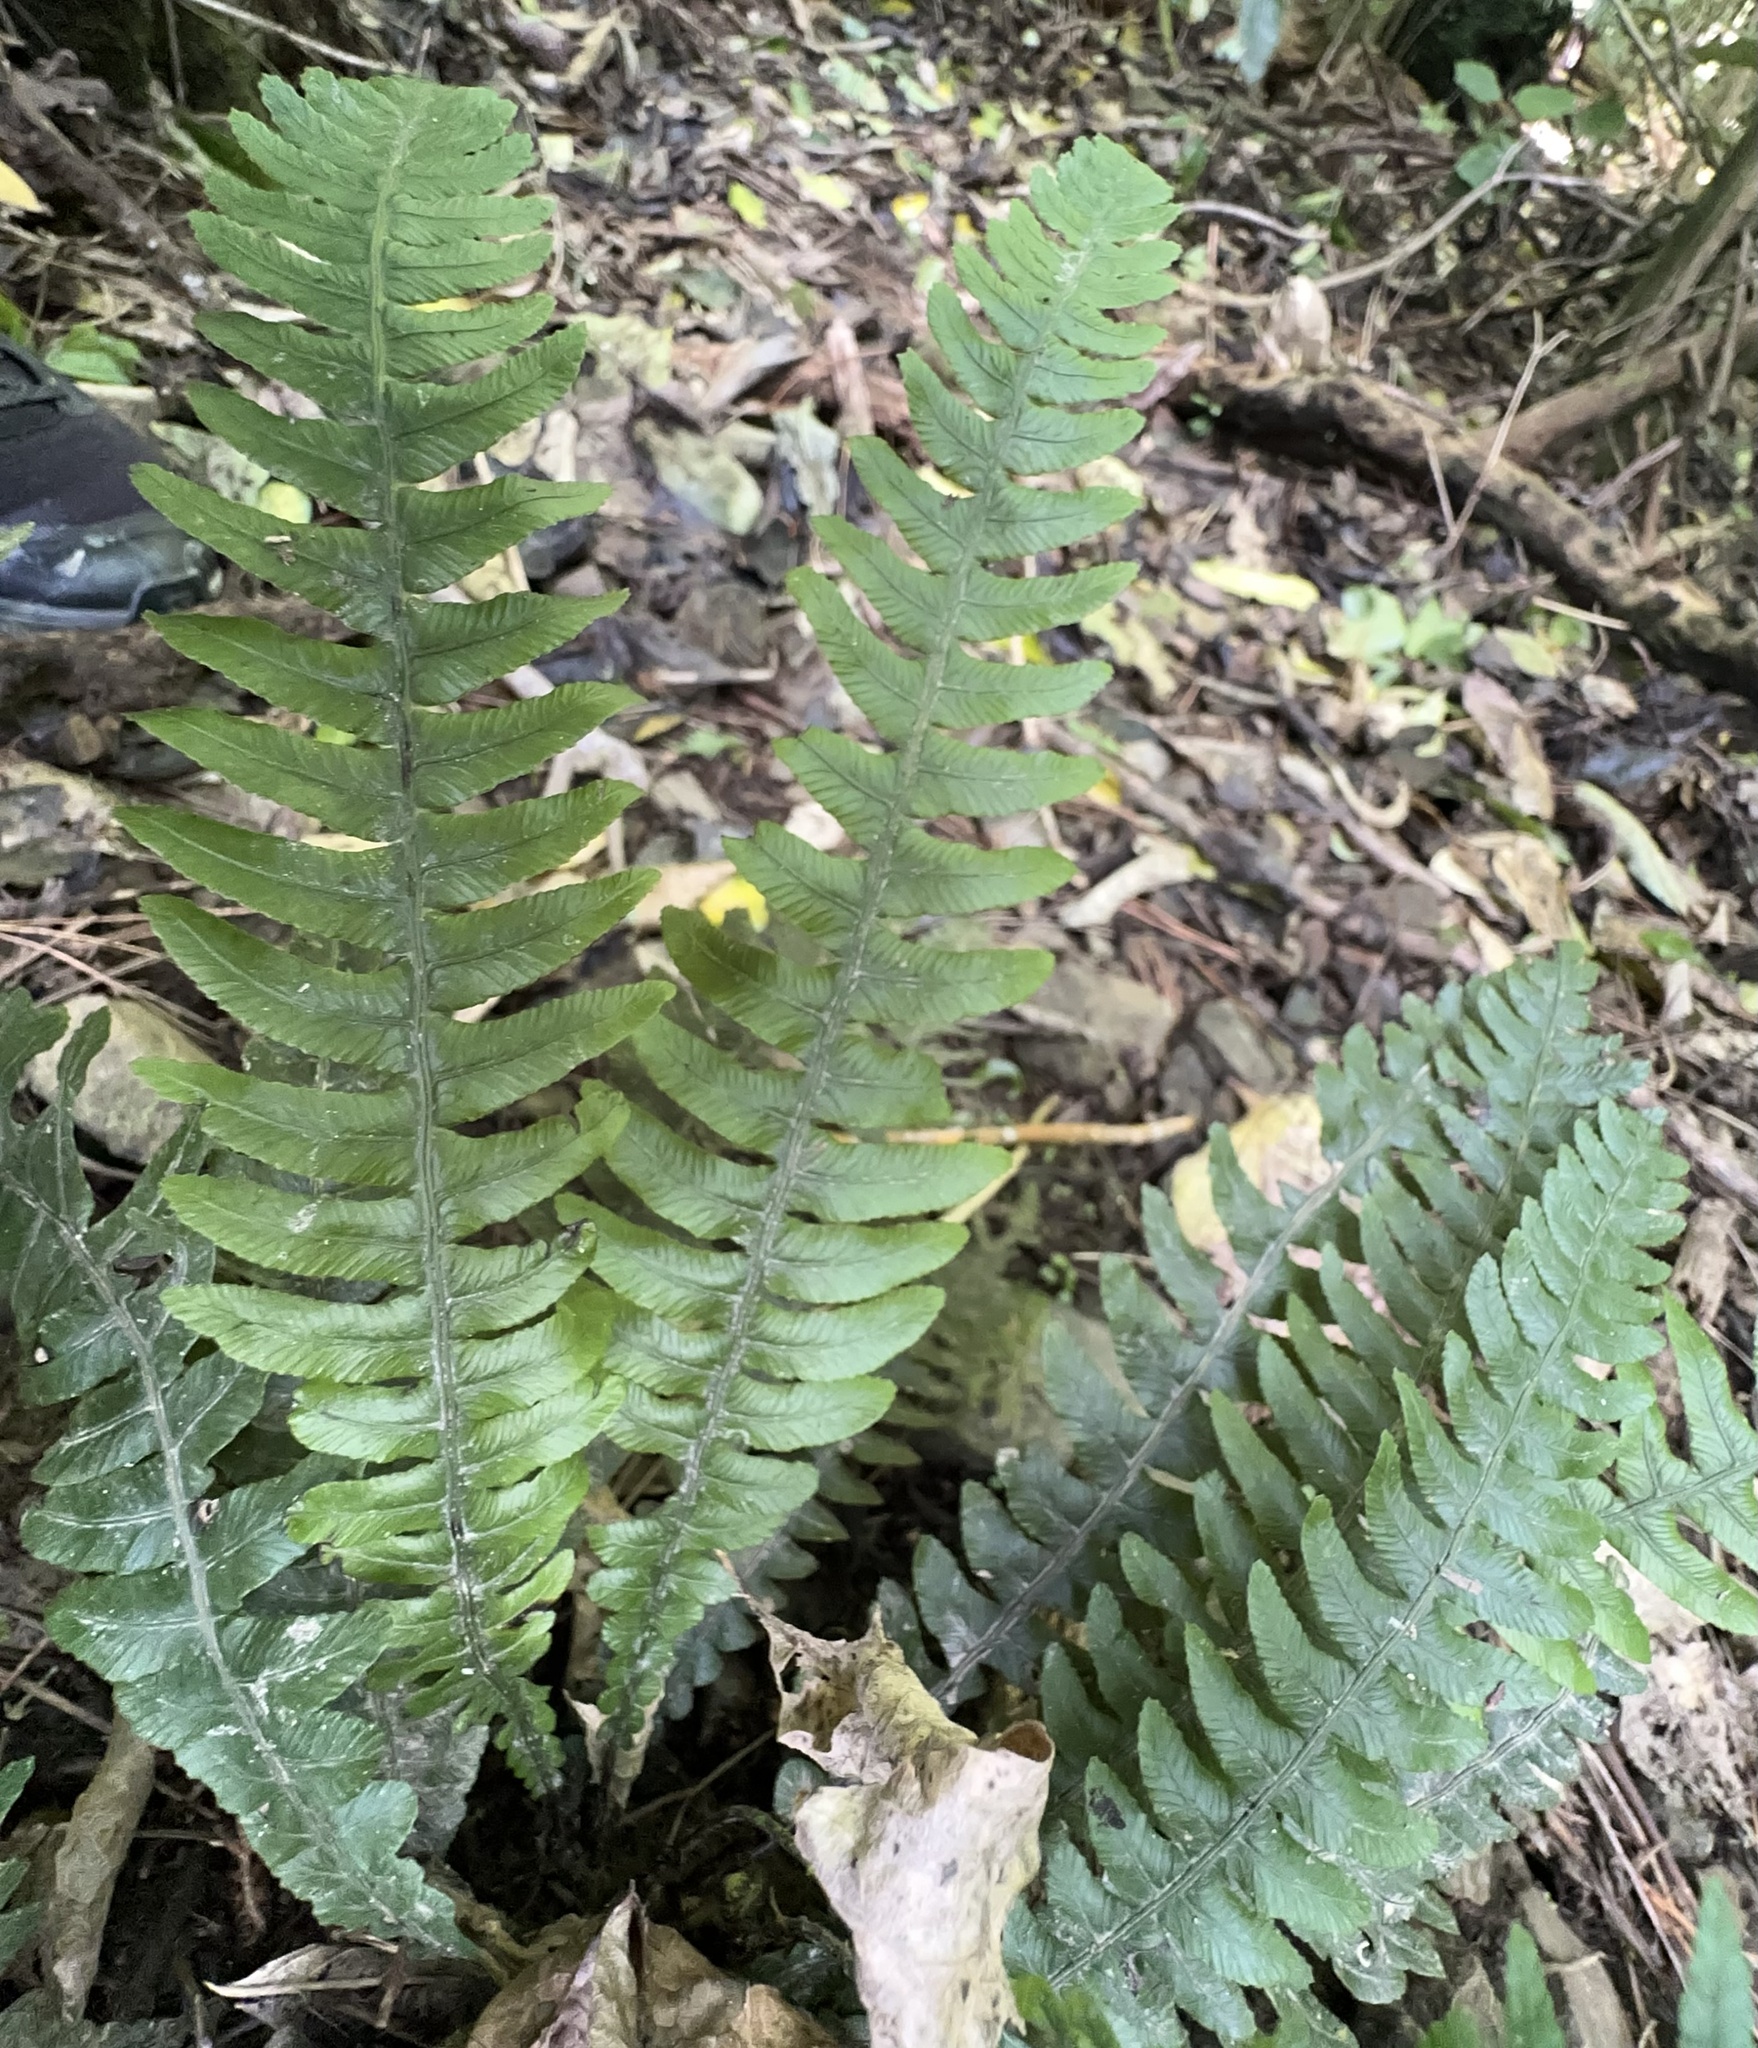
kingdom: Plantae
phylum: Tracheophyta
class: Polypodiopsida
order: Polypodiales
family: Blechnaceae
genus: Austroblechnum
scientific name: Austroblechnum lanceolatum
